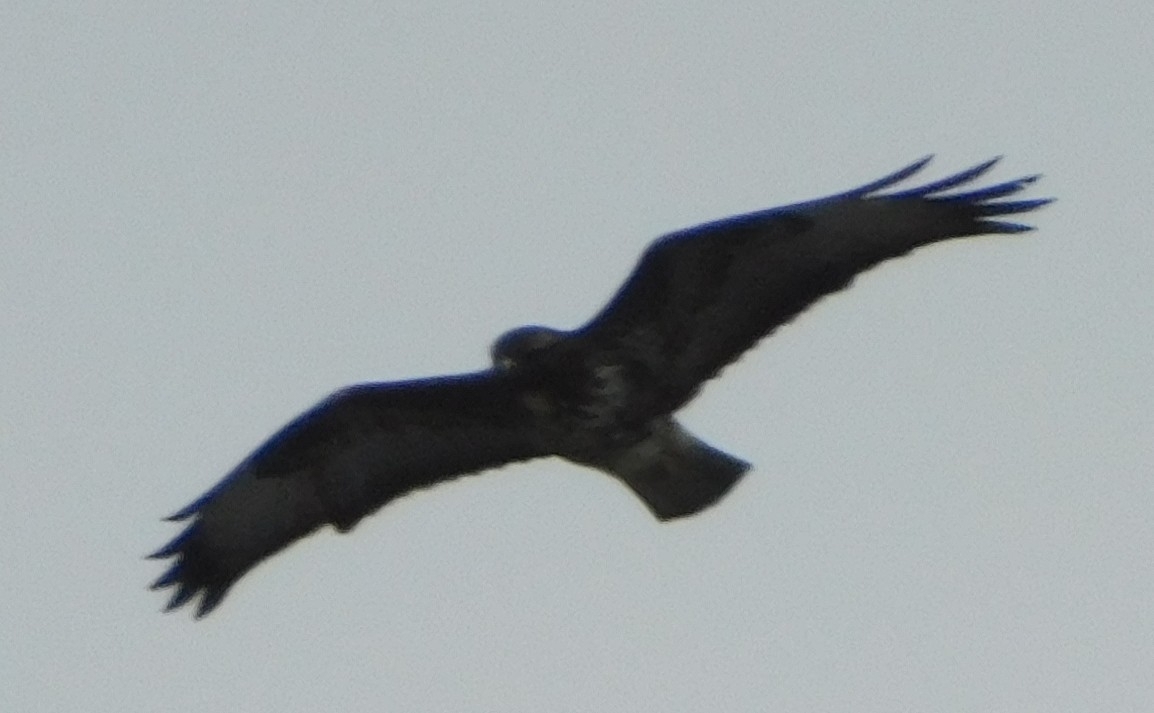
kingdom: Animalia
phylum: Chordata
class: Aves
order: Accipitriformes
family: Accipitridae
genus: Buteo
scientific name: Buteo buteo
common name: Common buzzard
